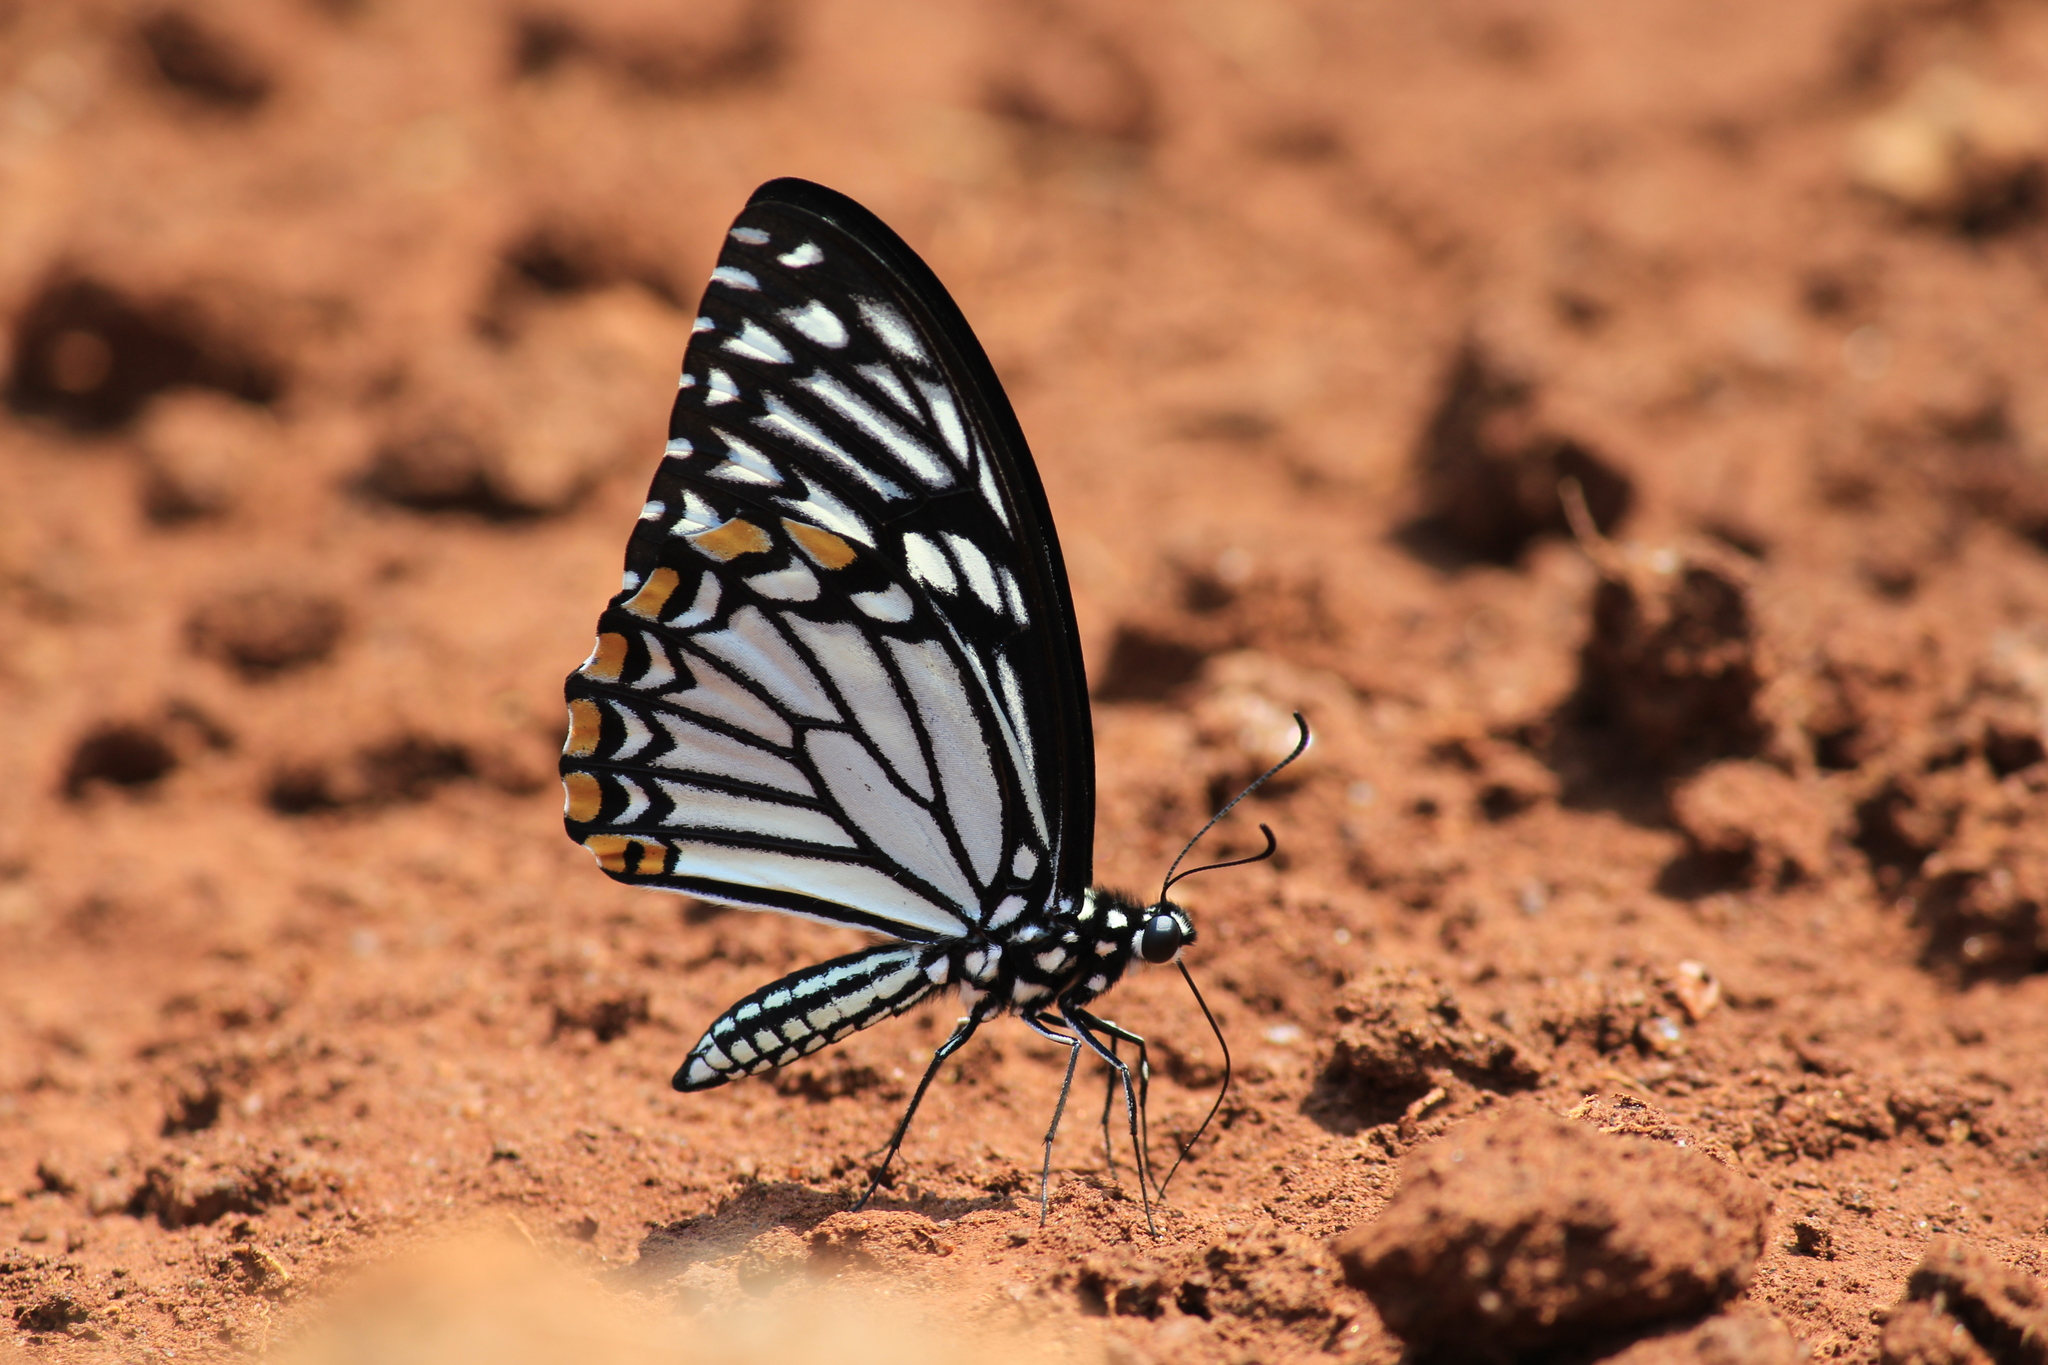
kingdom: Animalia
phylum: Arthropoda
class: Insecta
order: Lepidoptera
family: Papilionidae
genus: Chilasa
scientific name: Chilasa clytia
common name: Common mime
